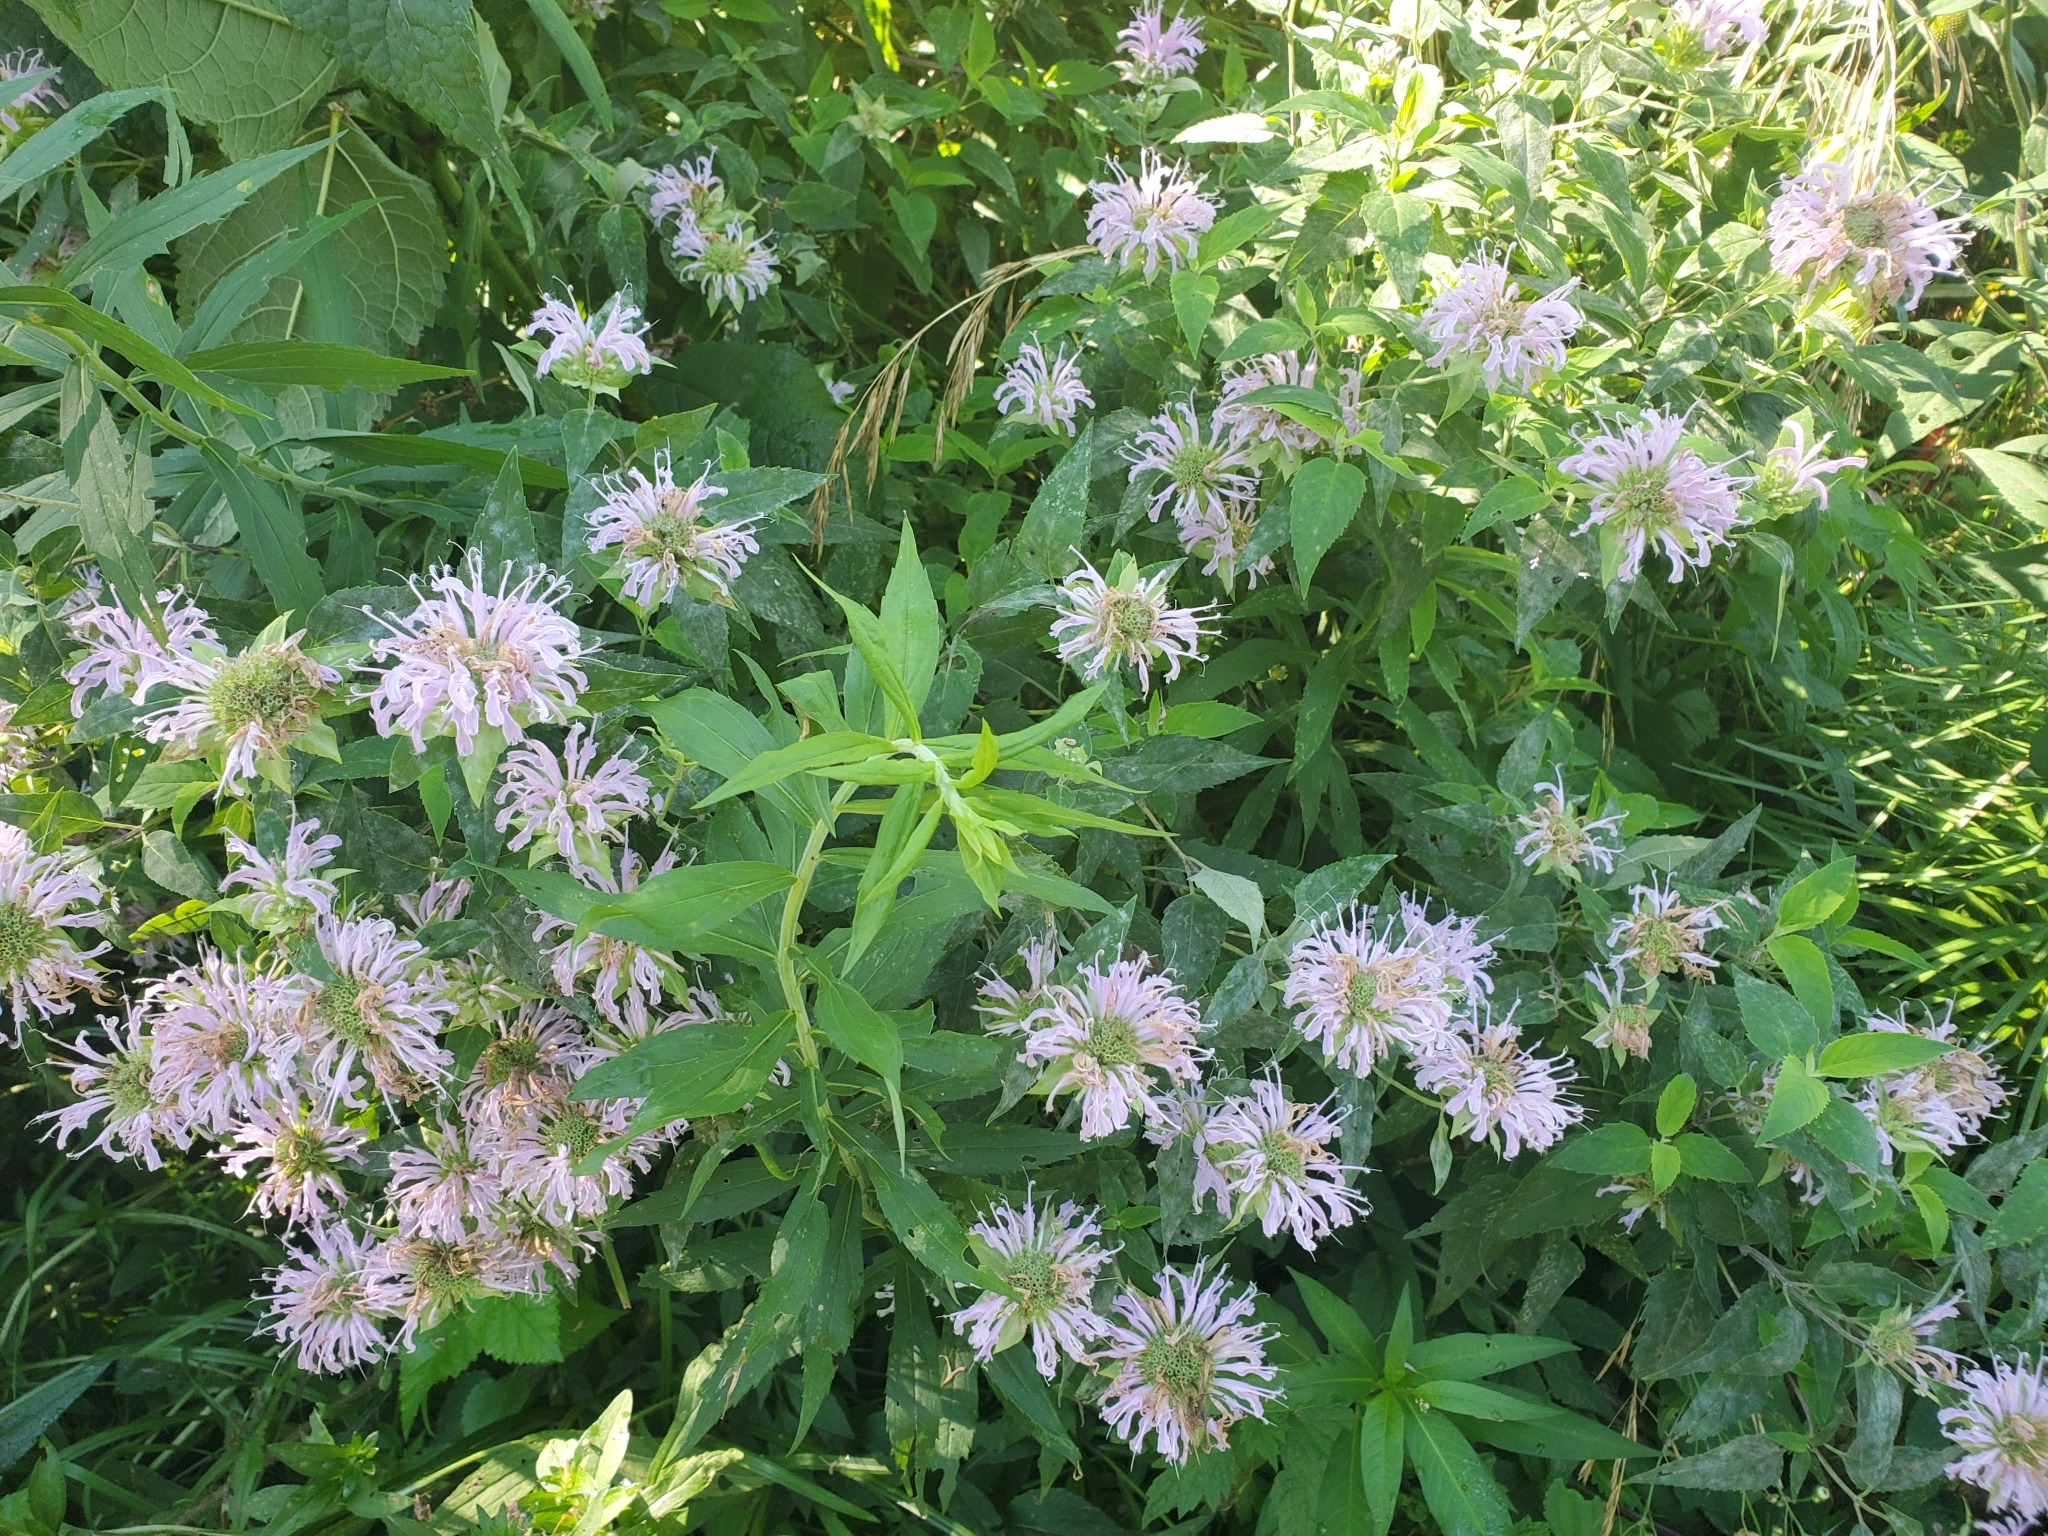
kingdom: Plantae
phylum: Tracheophyta
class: Magnoliopsida
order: Lamiales
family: Lamiaceae
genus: Monarda
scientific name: Monarda fistulosa
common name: Purple beebalm
